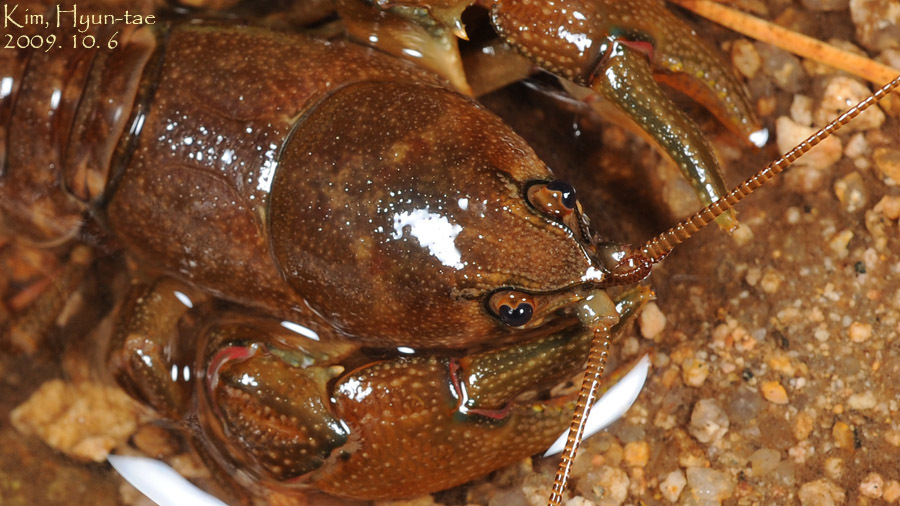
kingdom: Animalia
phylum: Arthropoda
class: Malacostraca
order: Decapoda
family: Cambaroididae
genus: Cambaroides
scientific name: Cambaroides similis
